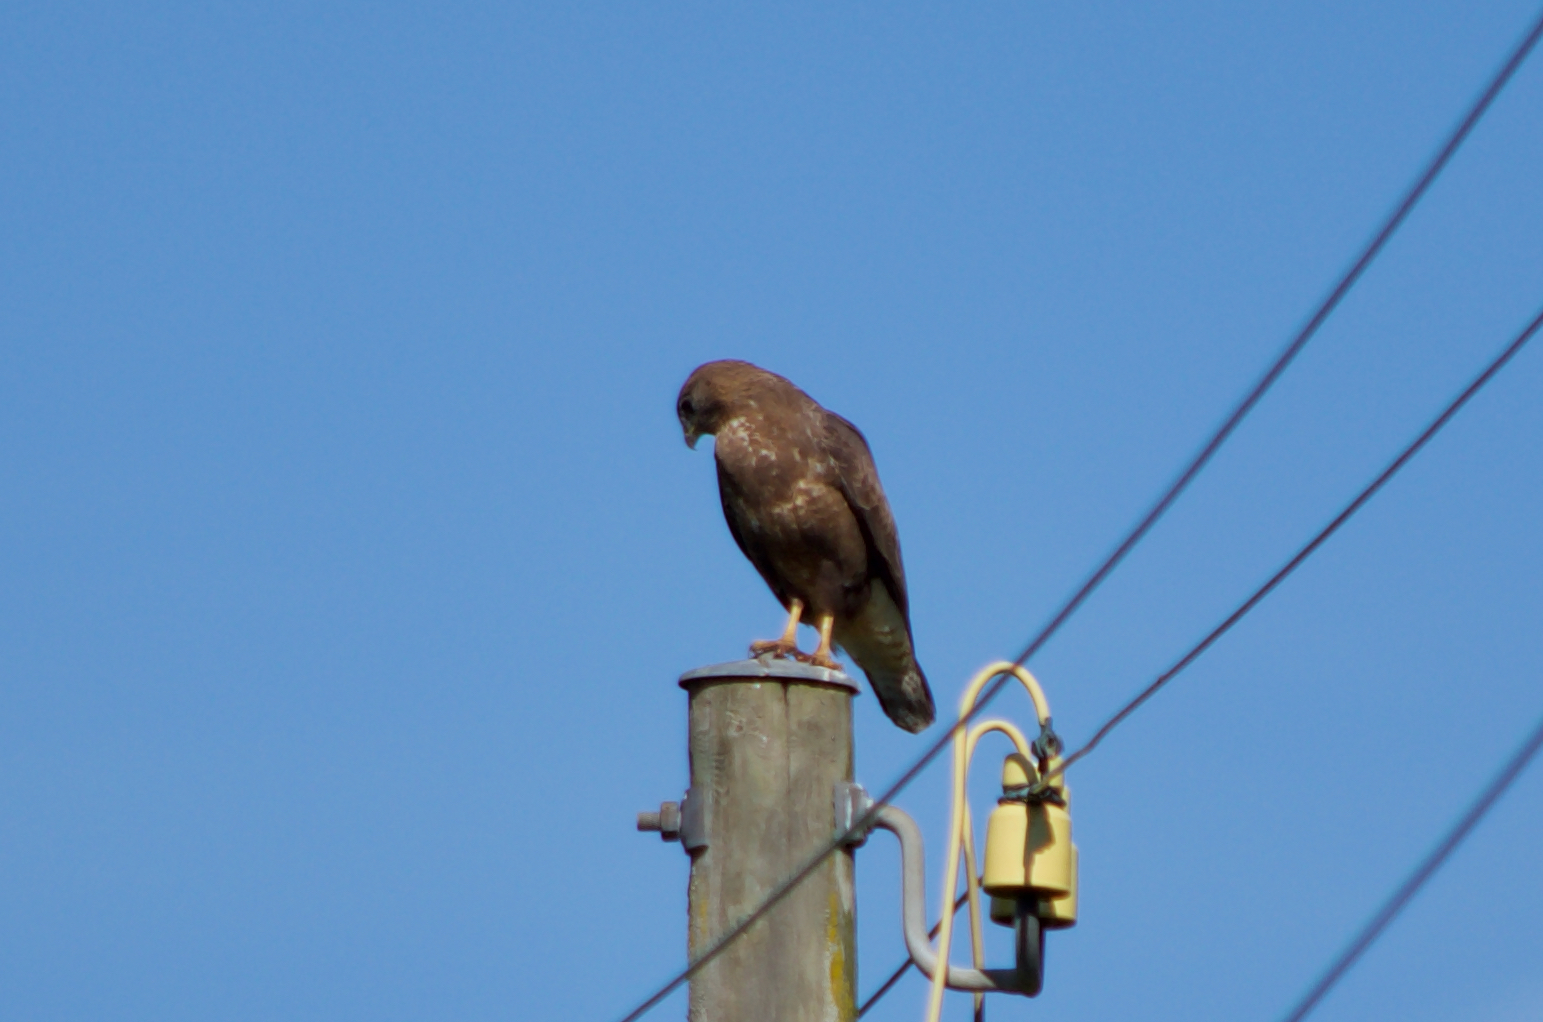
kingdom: Animalia
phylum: Chordata
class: Aves
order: Accipitriformes
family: Accipitridae
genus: Buteo
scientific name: Buteo buteo
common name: Common buzzard
